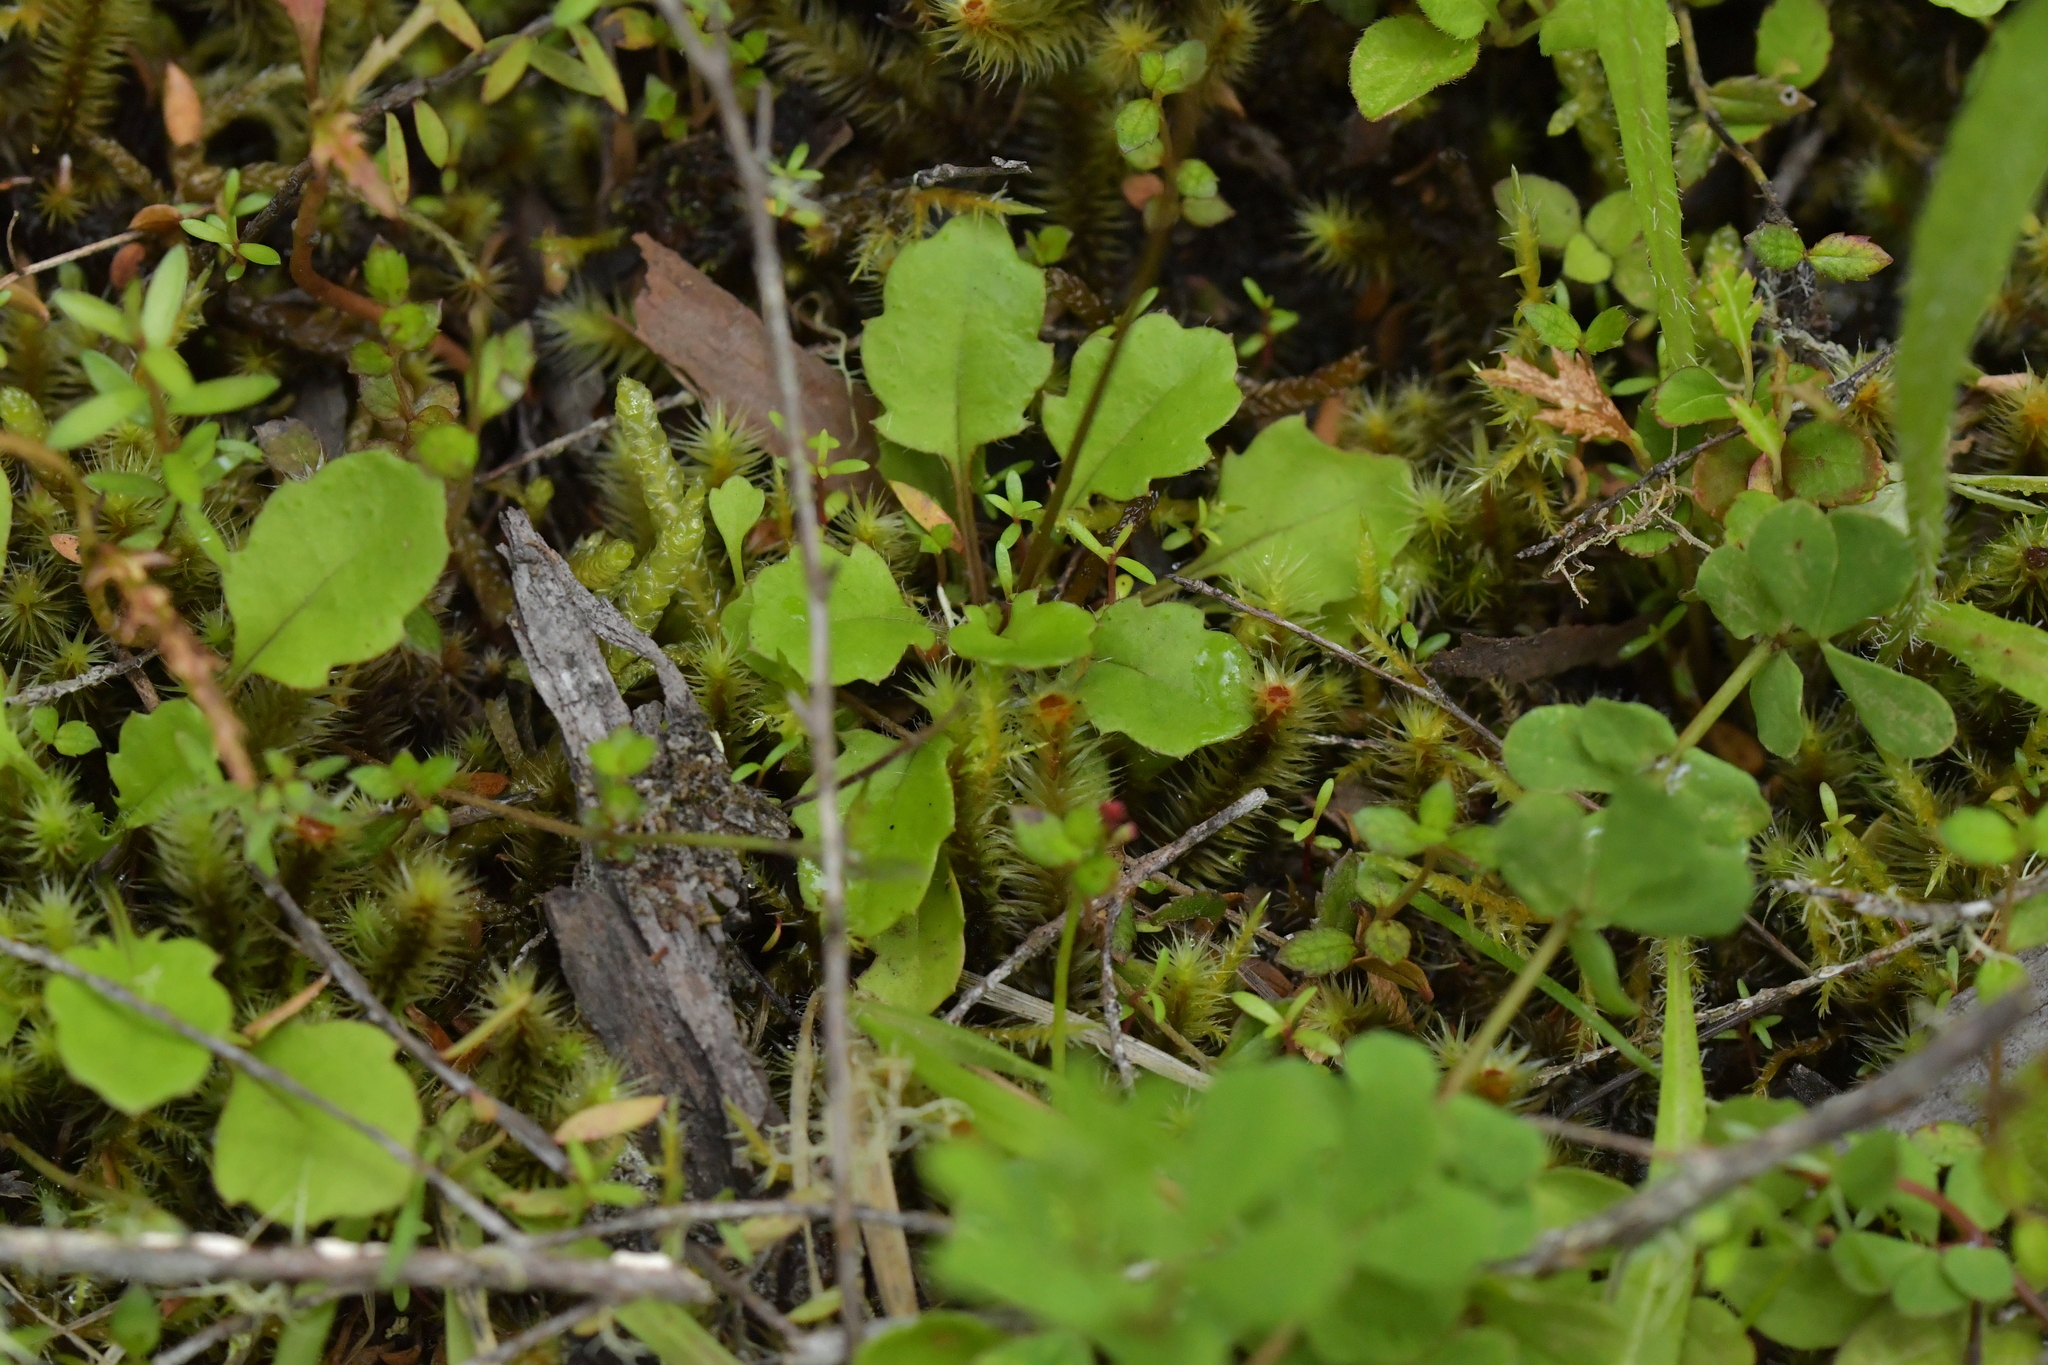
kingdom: Plantae
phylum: Tracheophyta
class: Magnoliopsida
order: Asterales
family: Asteraceae
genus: Lagenophora
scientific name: Lagenophora pumila
